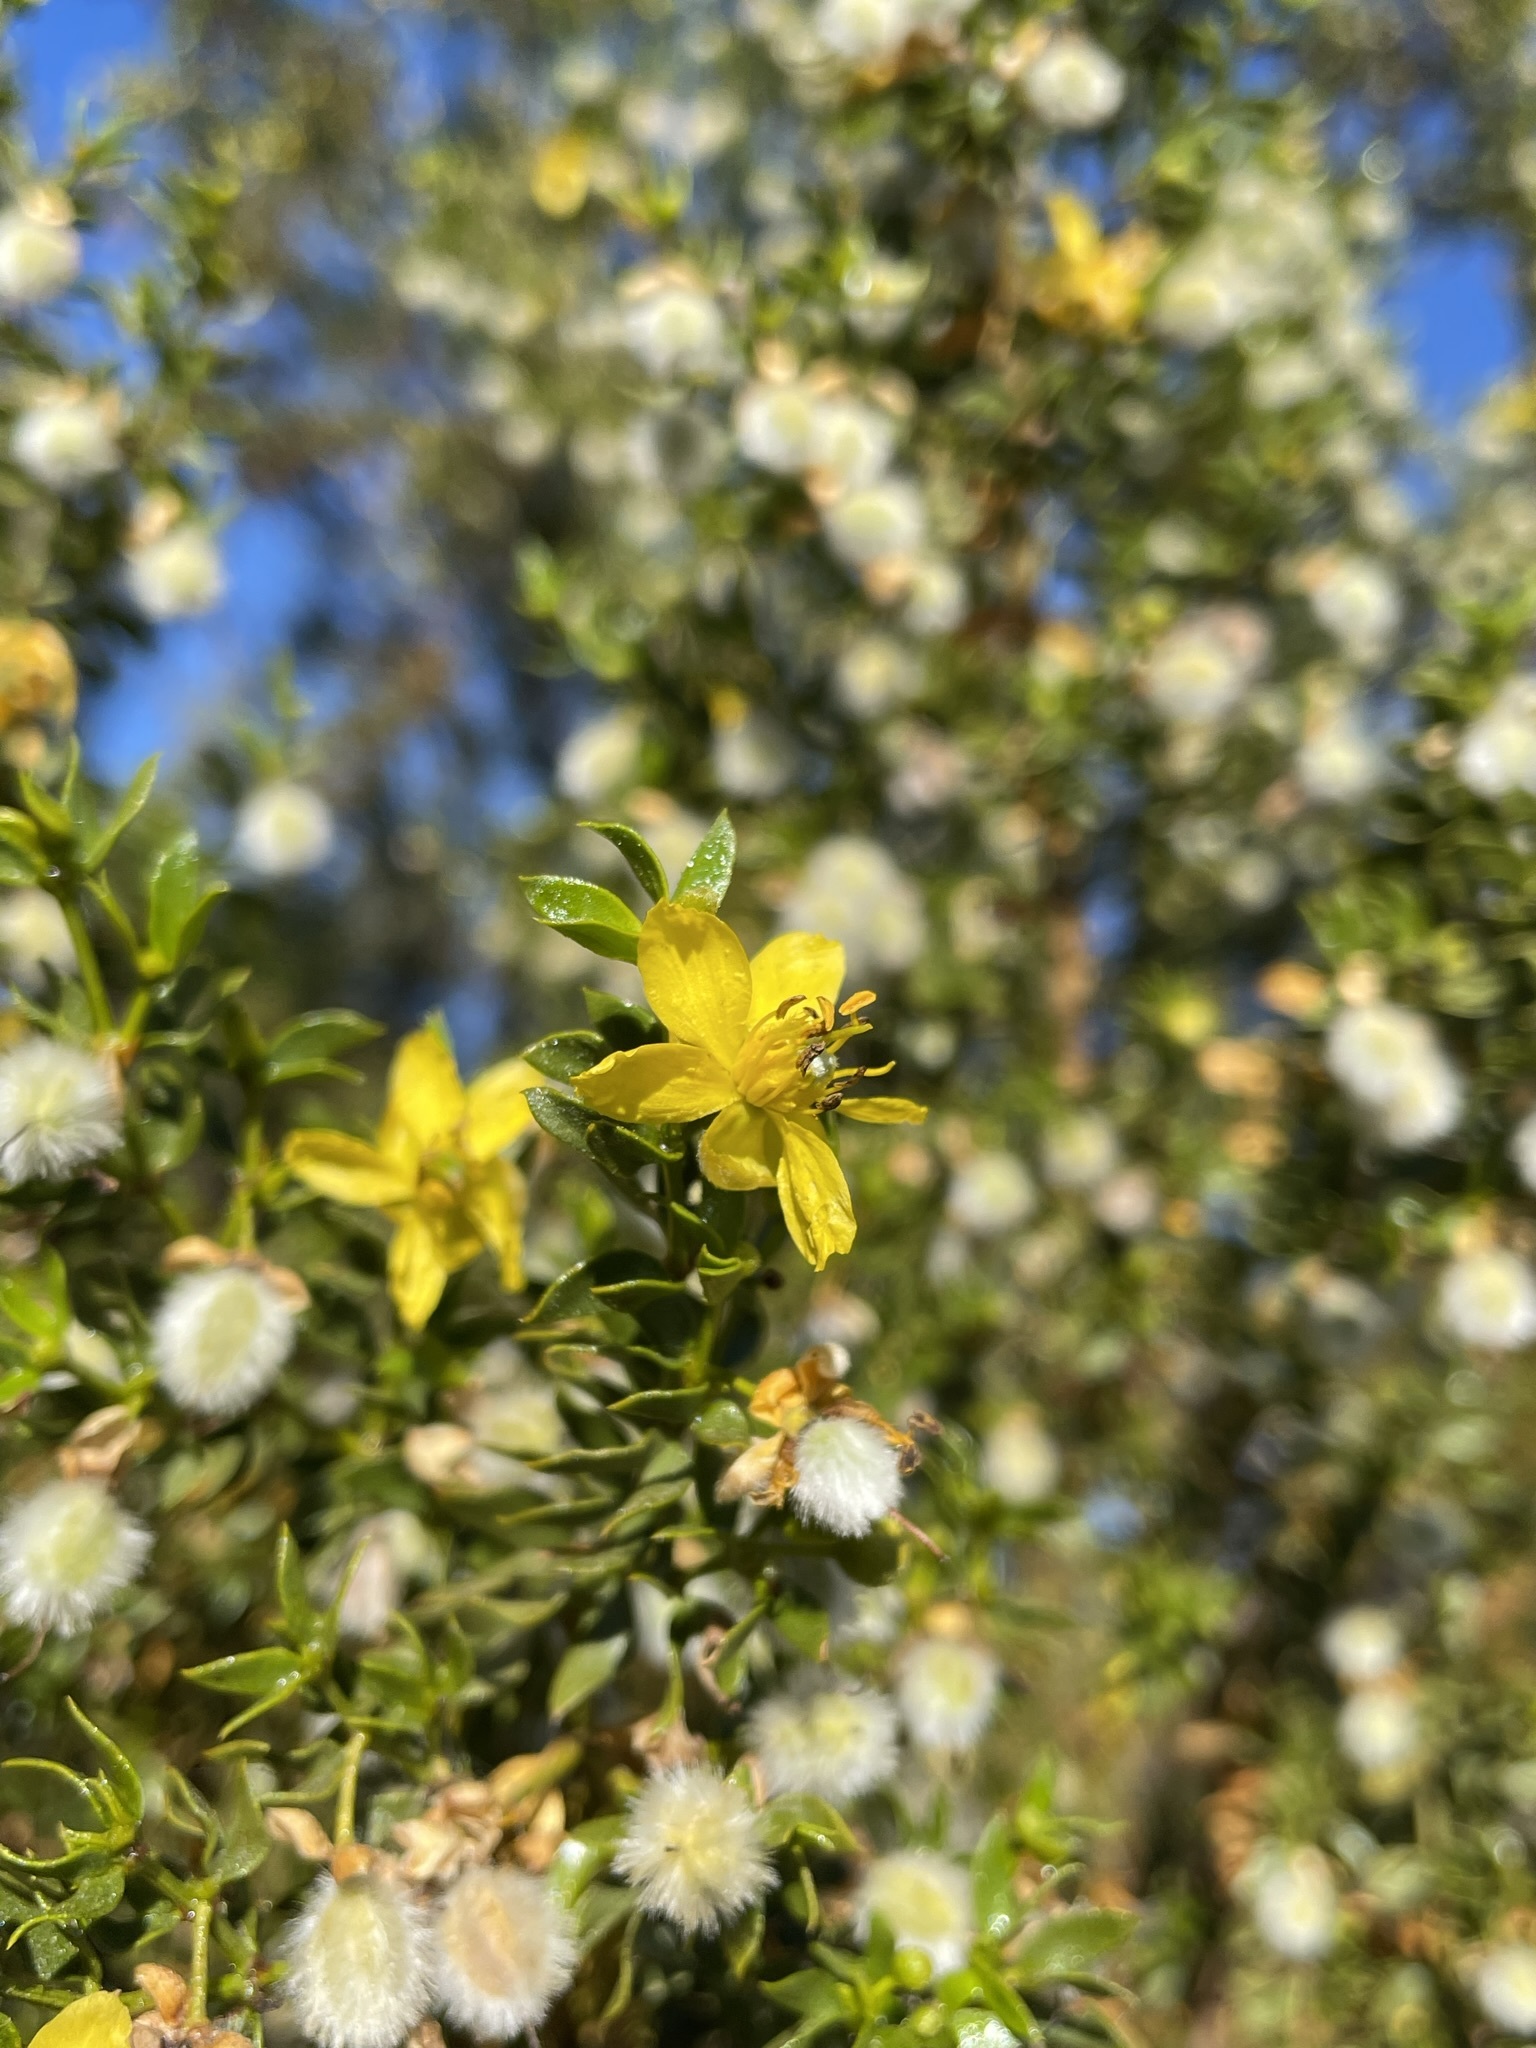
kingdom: Plantae
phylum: Tracheophyta
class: Magnoliopsida
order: Zygophyllales
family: Zygophyllaceae
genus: Larrea
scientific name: Larrea tridentata
